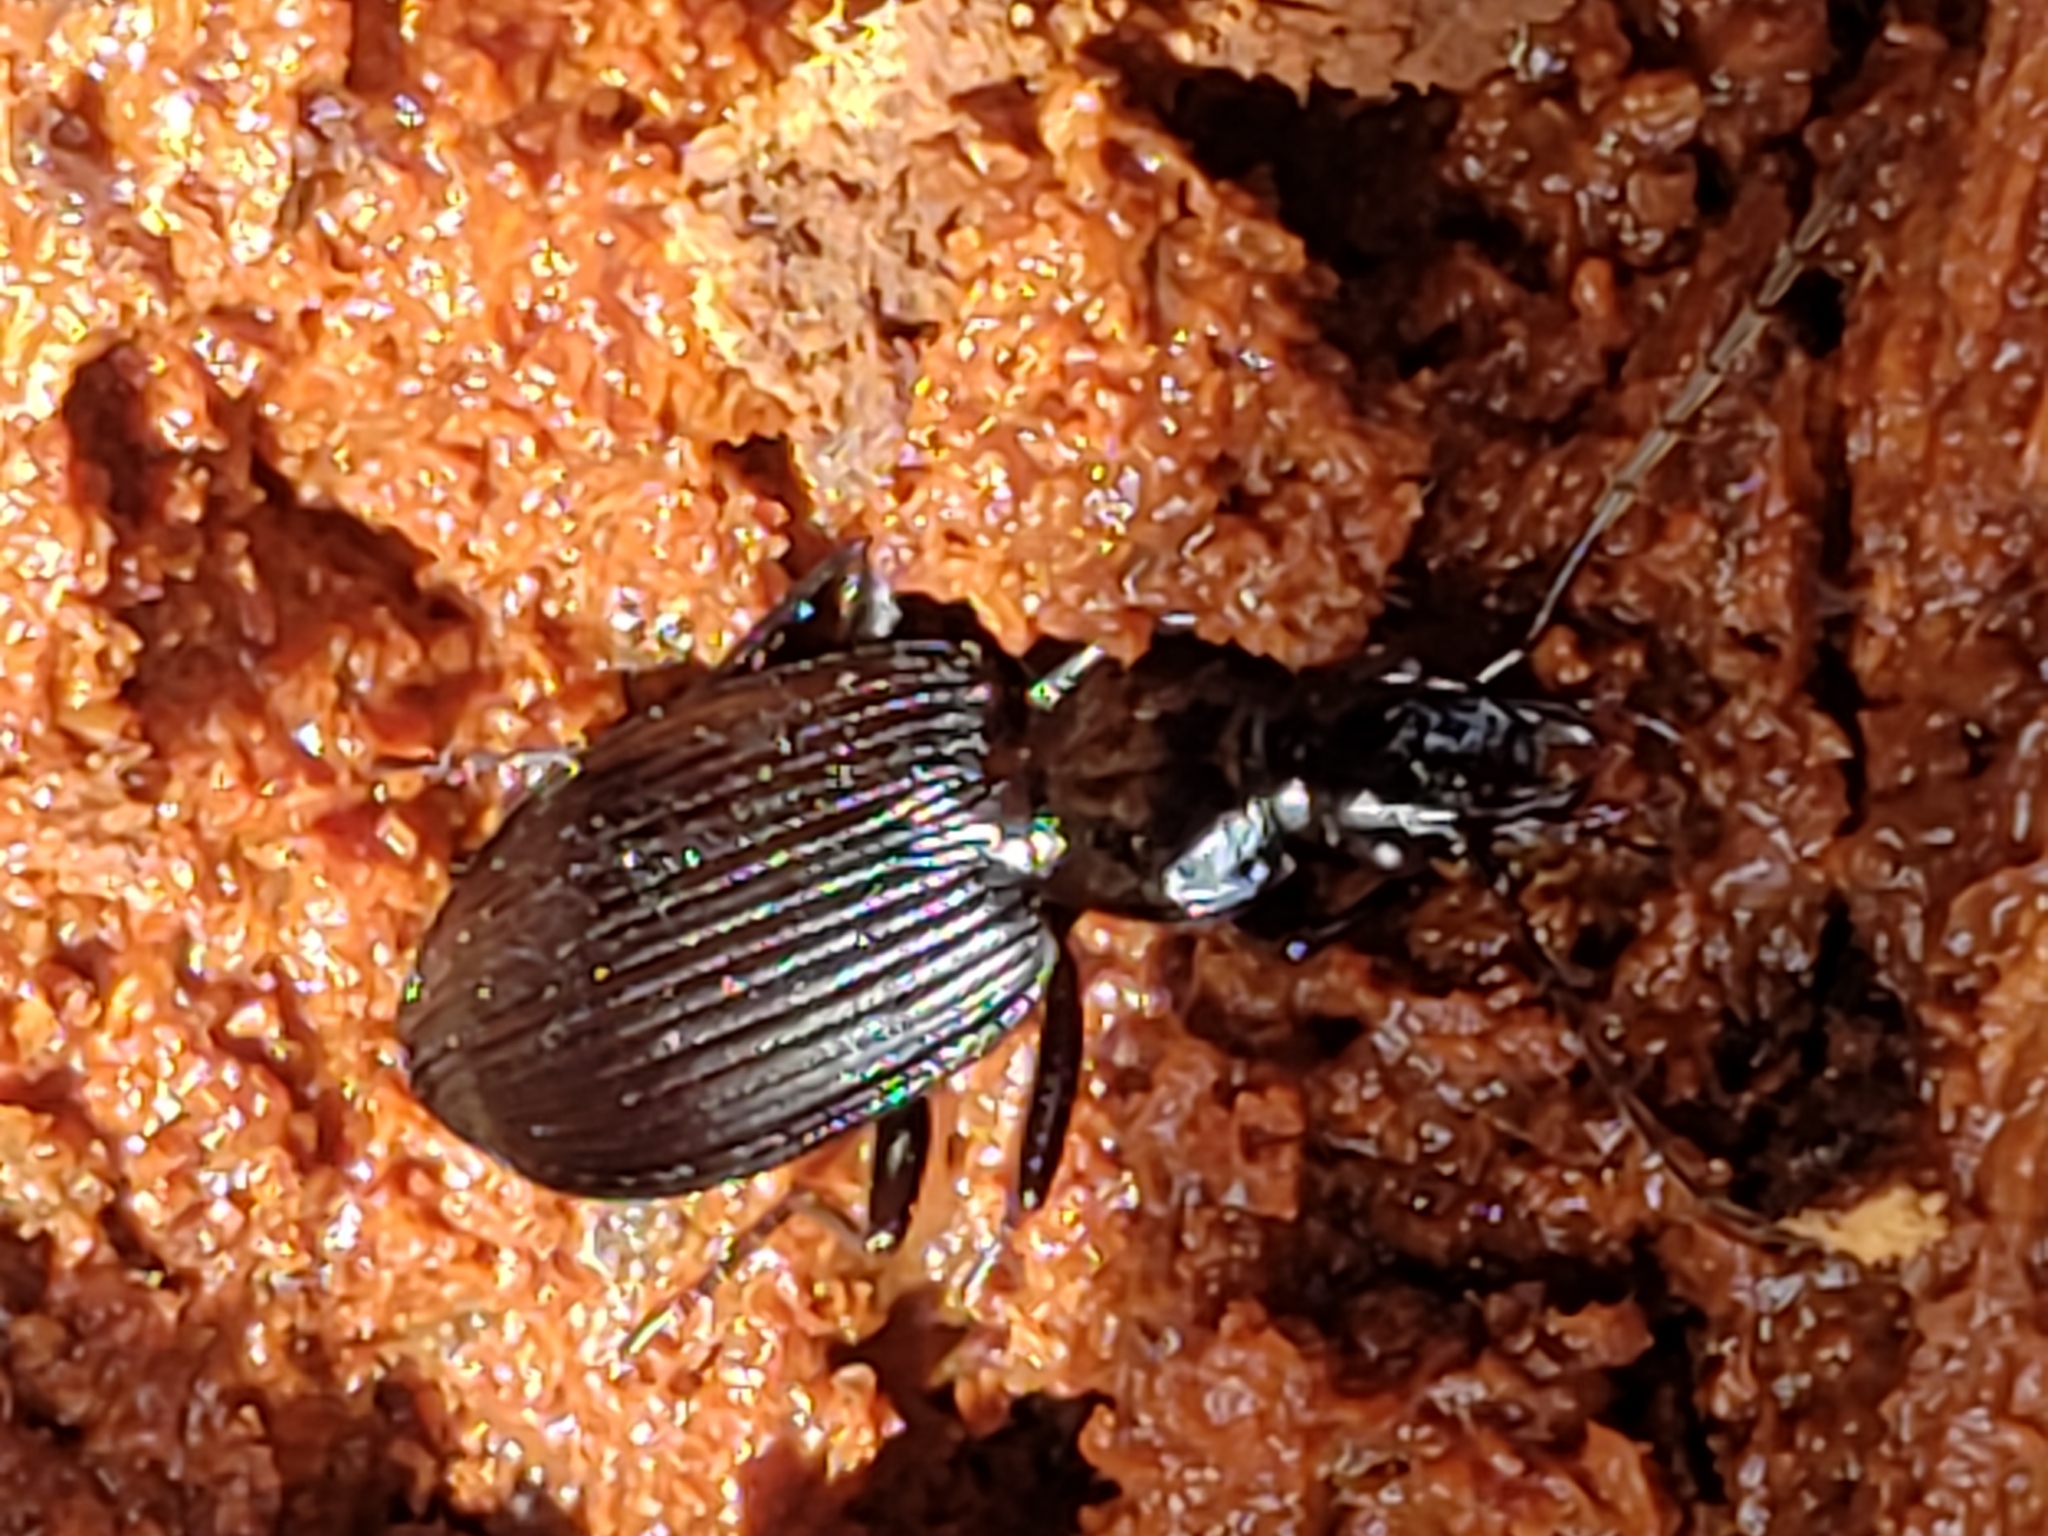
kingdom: Animalia
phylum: Arthropoda
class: Insecta
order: Coleoptera
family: Carabidae
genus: Platynus
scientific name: Platynus decentis
